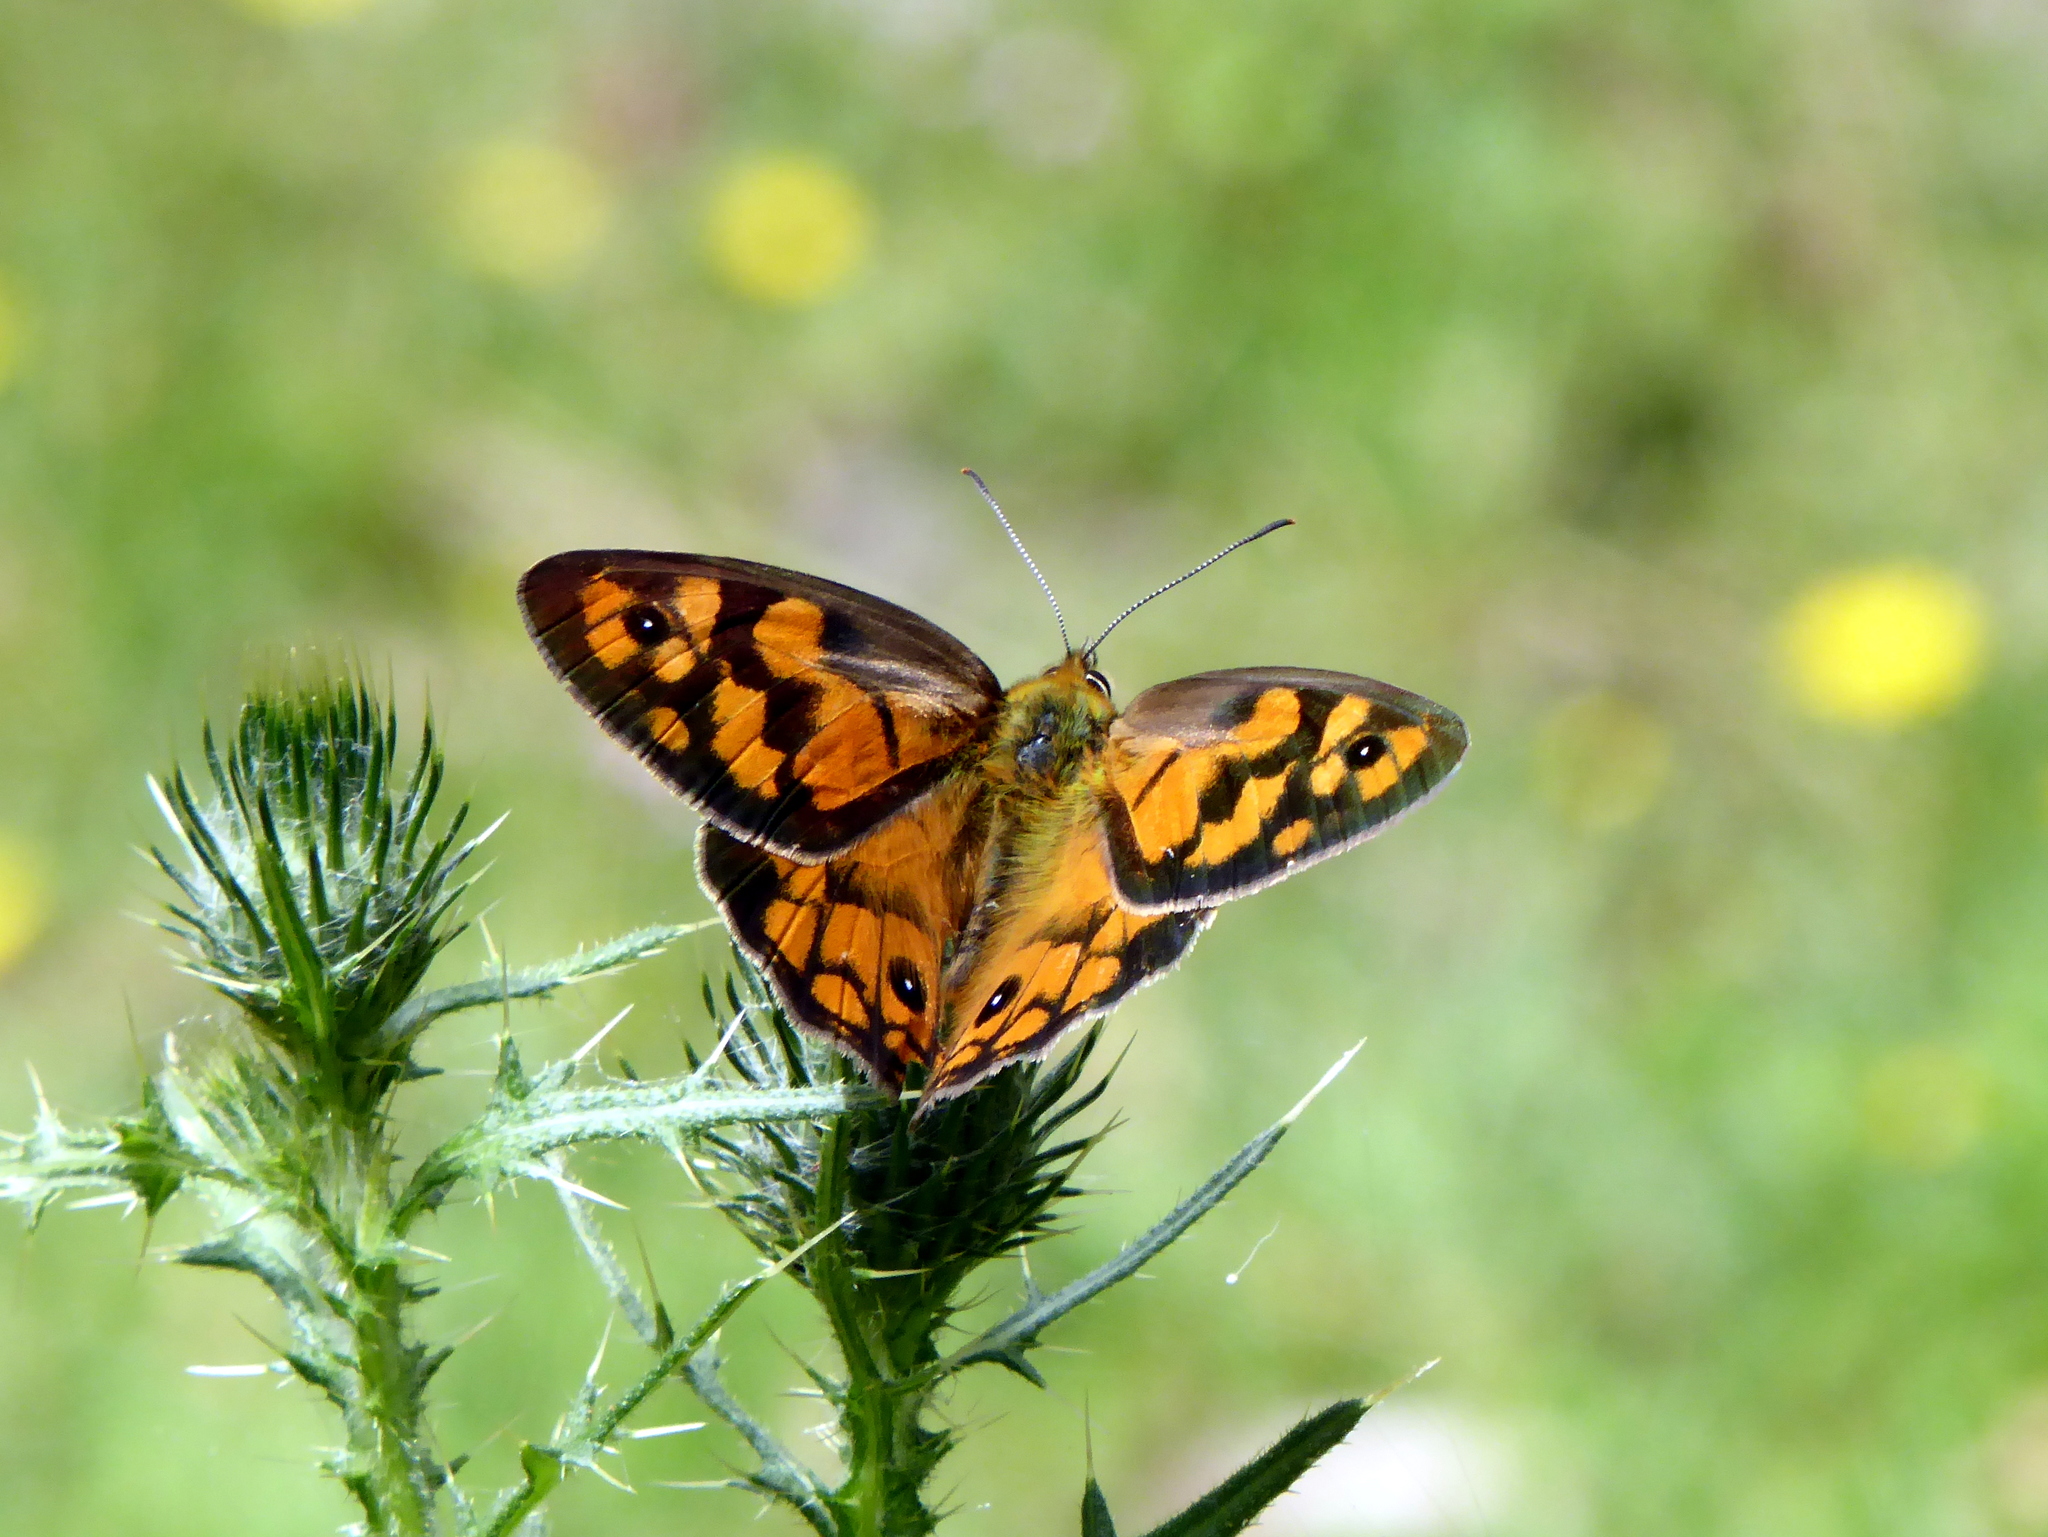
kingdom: Animalia
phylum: Arthropoda
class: Insecta
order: Lepidoptera
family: Nymphalidae
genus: Heteronympha
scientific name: Heteronympha penelope
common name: Shouldered brown
